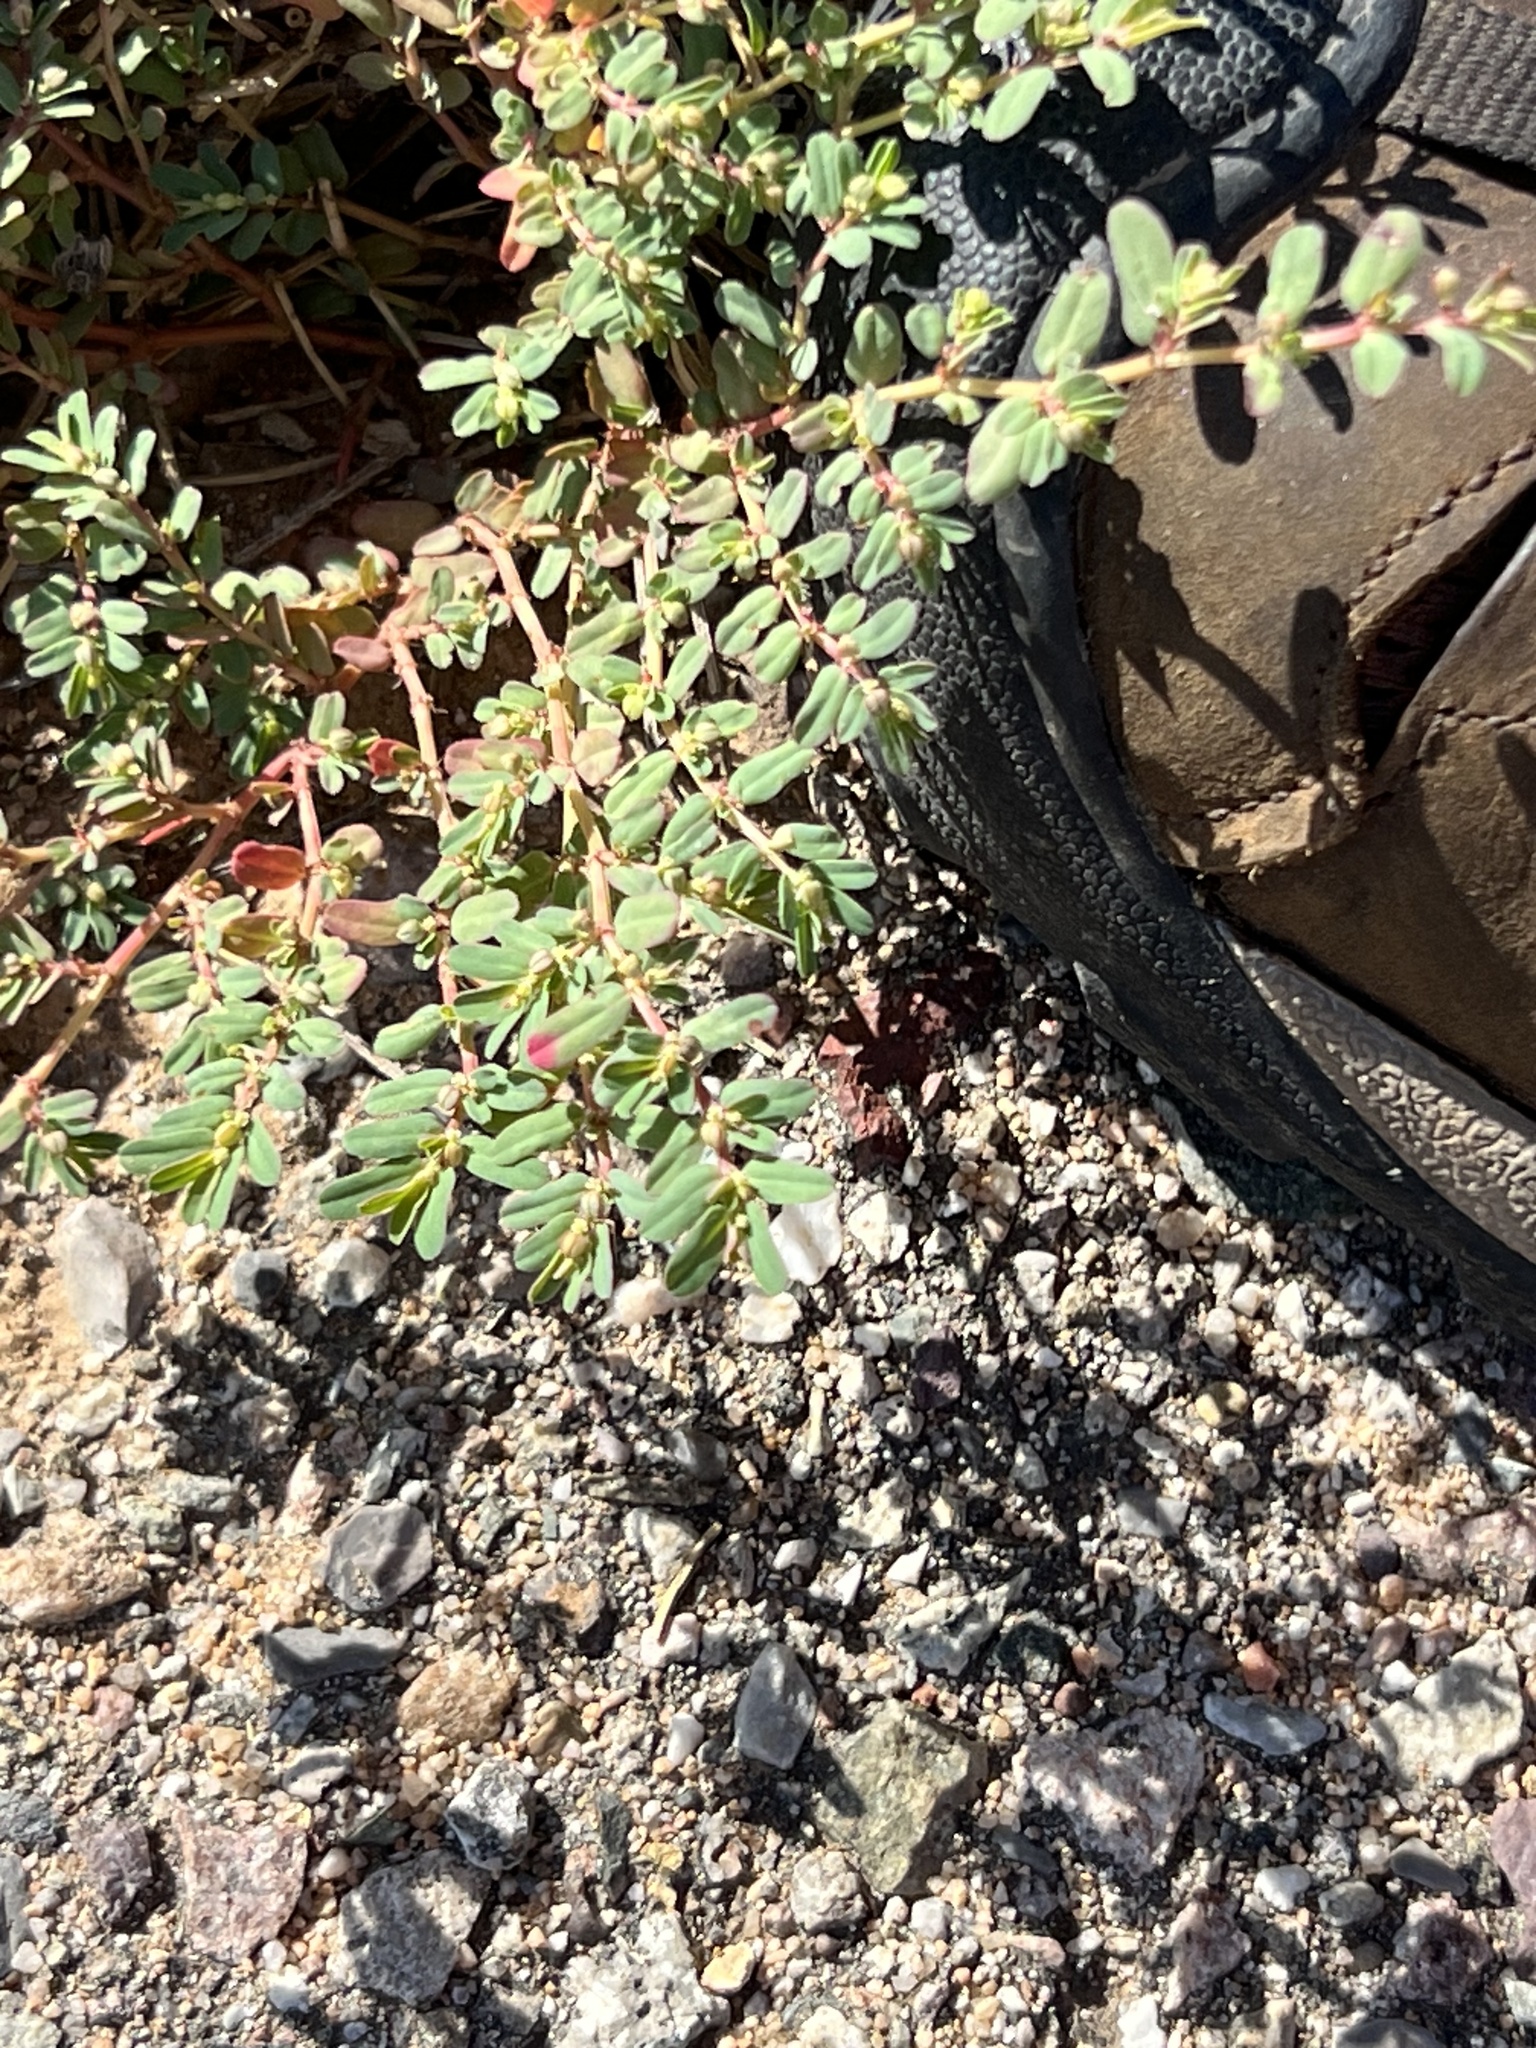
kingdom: Plantae
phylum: Tracheophyta
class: Magnoliopsida
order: Malpighiales
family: Euphorbiaceae
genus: Euphorbia
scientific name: Euphorbia serpillifolia
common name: Thyme-leaf spurge
